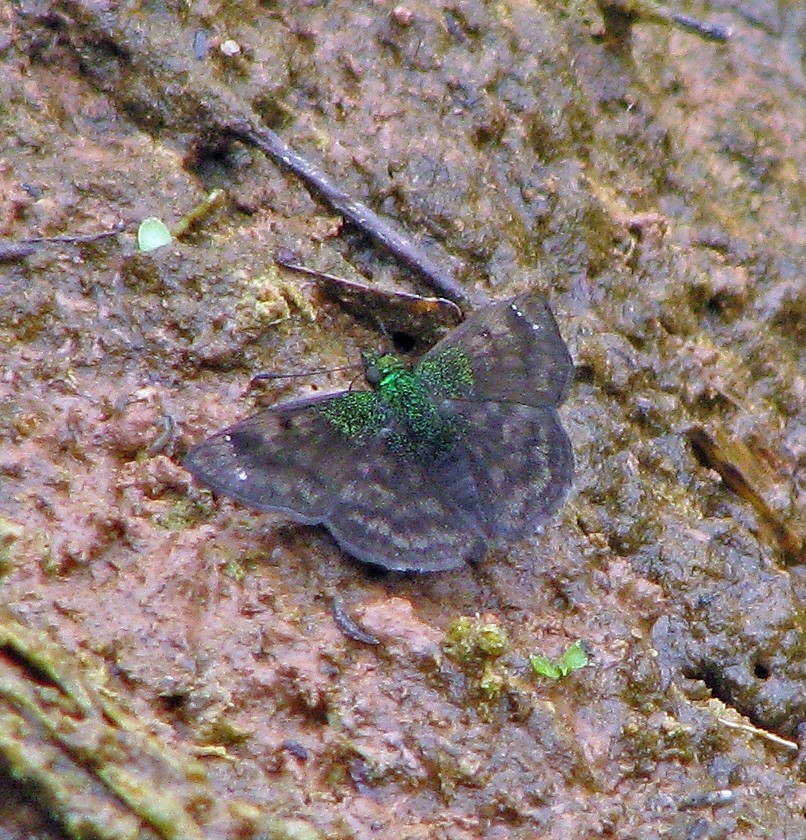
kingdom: Animalia
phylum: Arthropoda
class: Insecta
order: Lepidoptera
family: Hesperiidae
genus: Gorgopas
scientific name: Gorgopas trochilus
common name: Green-shouldered sootywing
